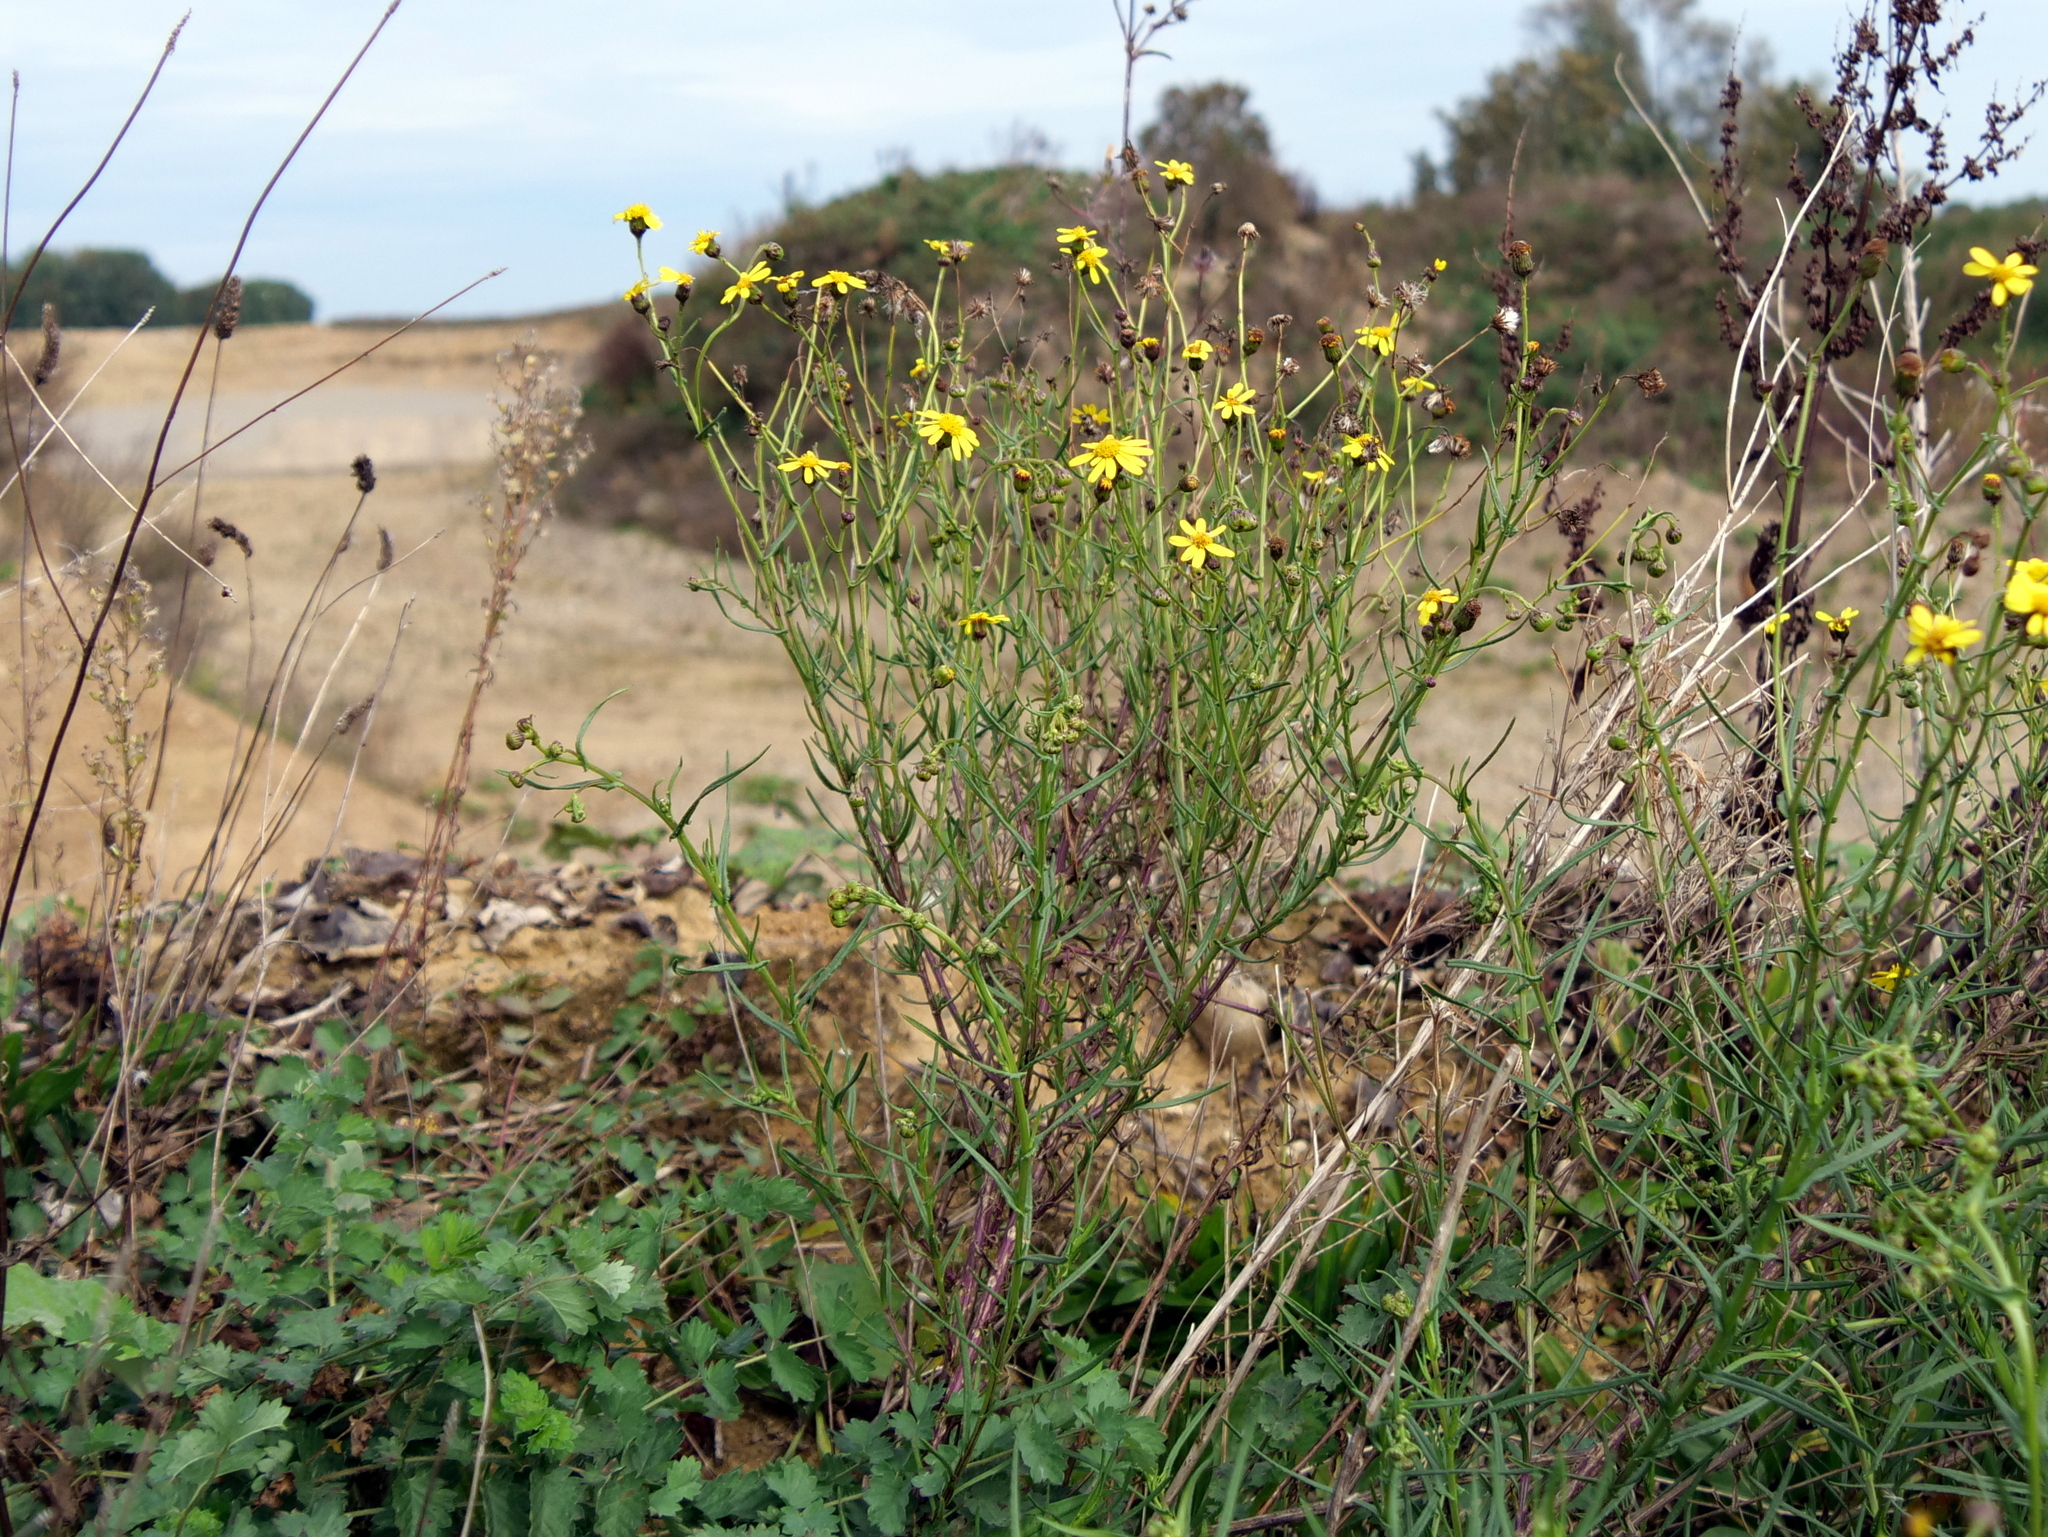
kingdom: Plantae
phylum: Tracheophyta
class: Magnoliopsida
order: Asterales
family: Asteraceae
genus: Senecio
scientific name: Senecio inaequidens
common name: Narrow-leaved ragwort
